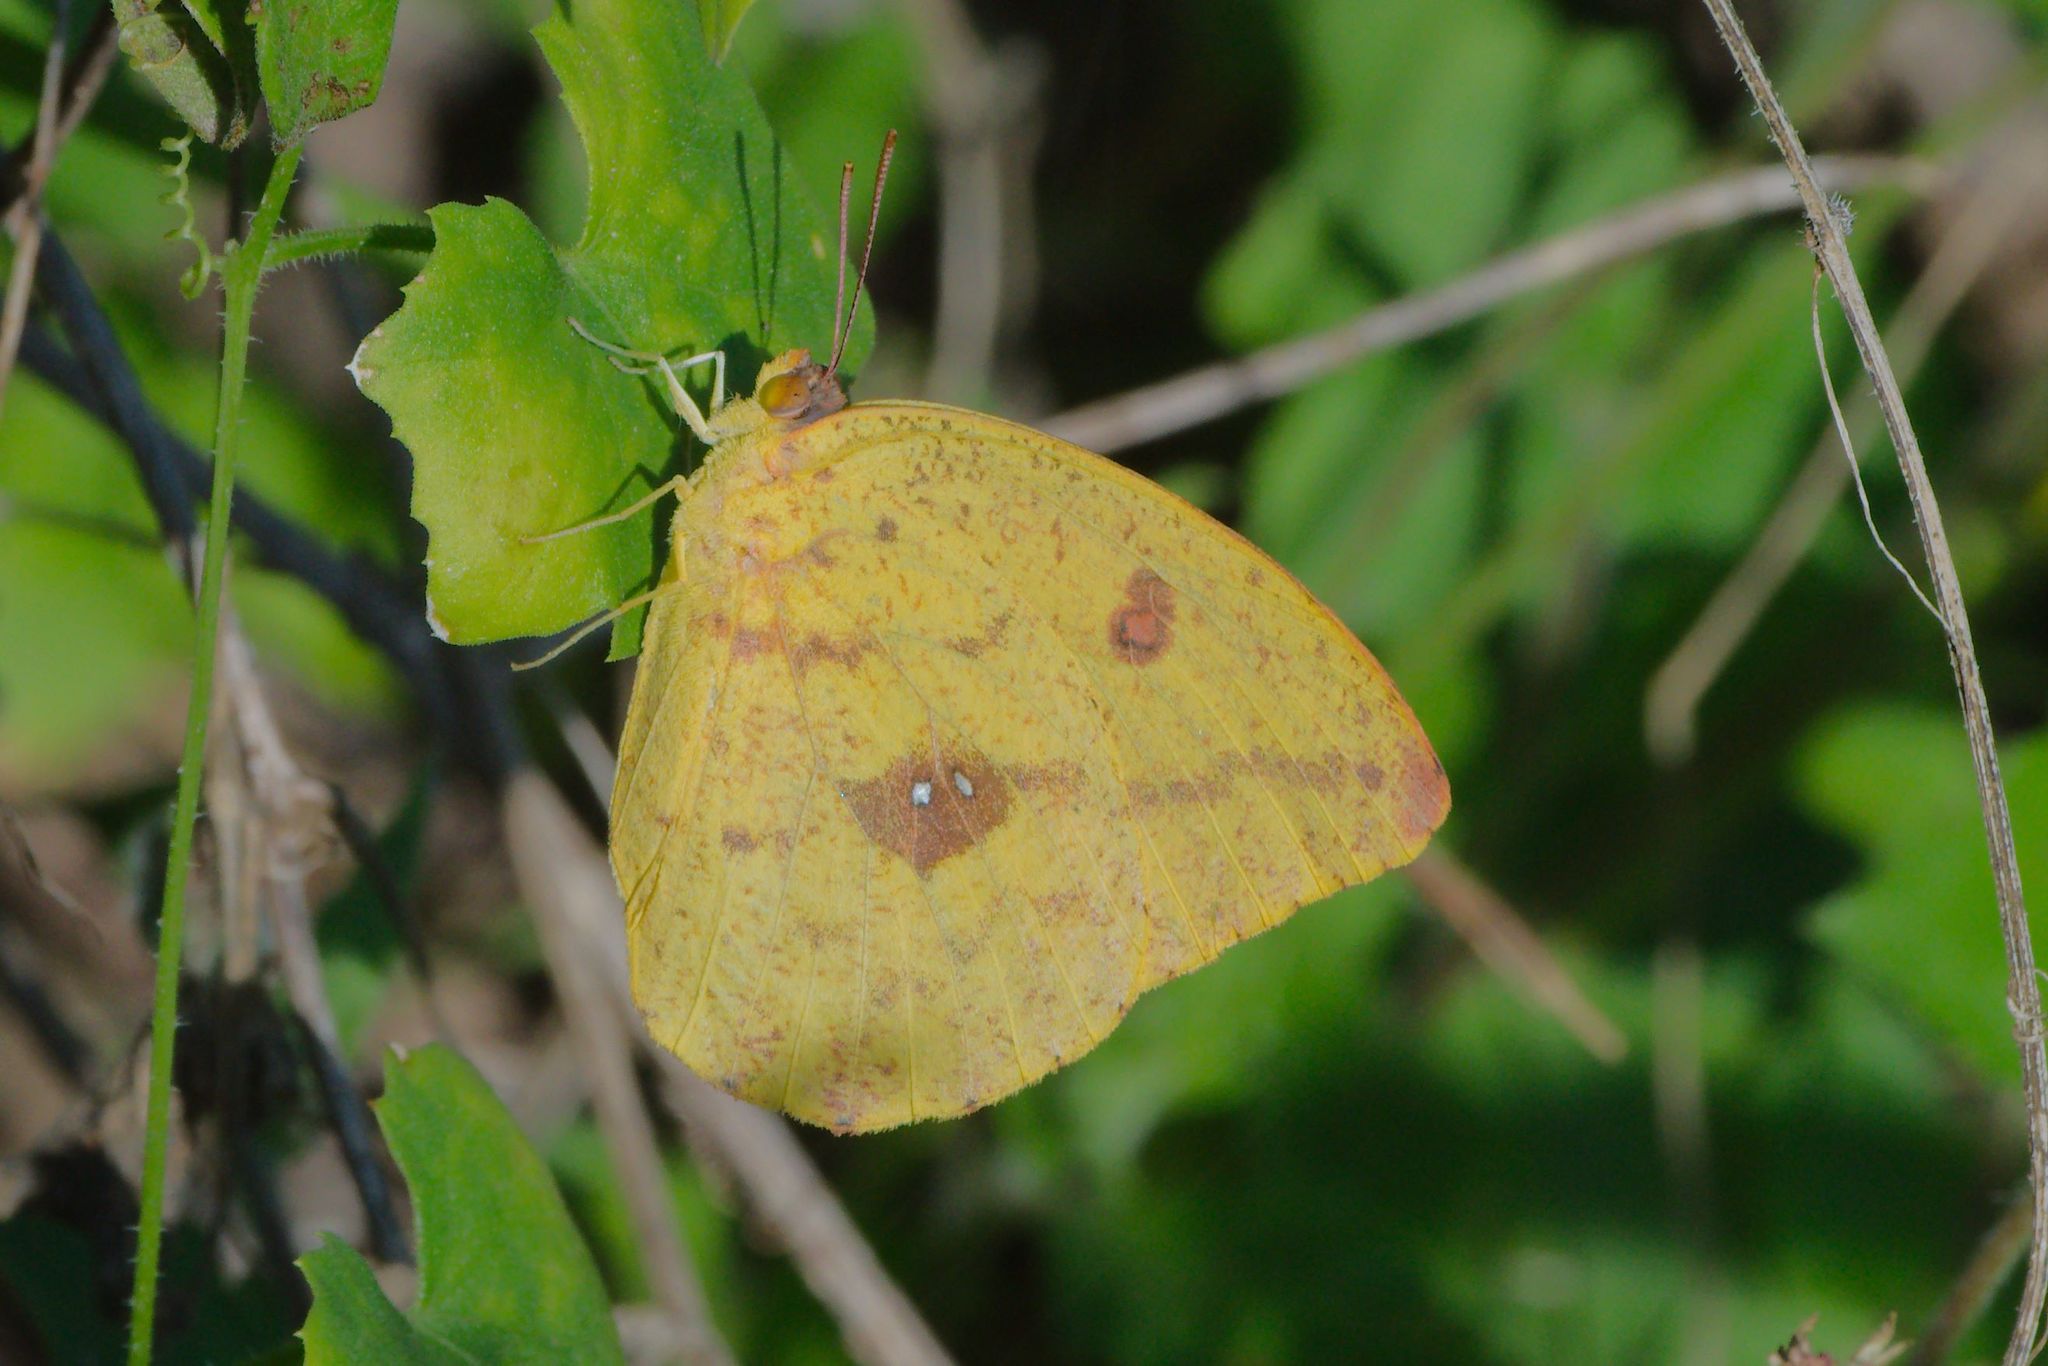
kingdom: Animalia
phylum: Arthropoda
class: Insecta
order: Lepidoptera
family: Pieridae
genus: Phoebis
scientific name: Phoebis agarithe
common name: Large orange sulphur
